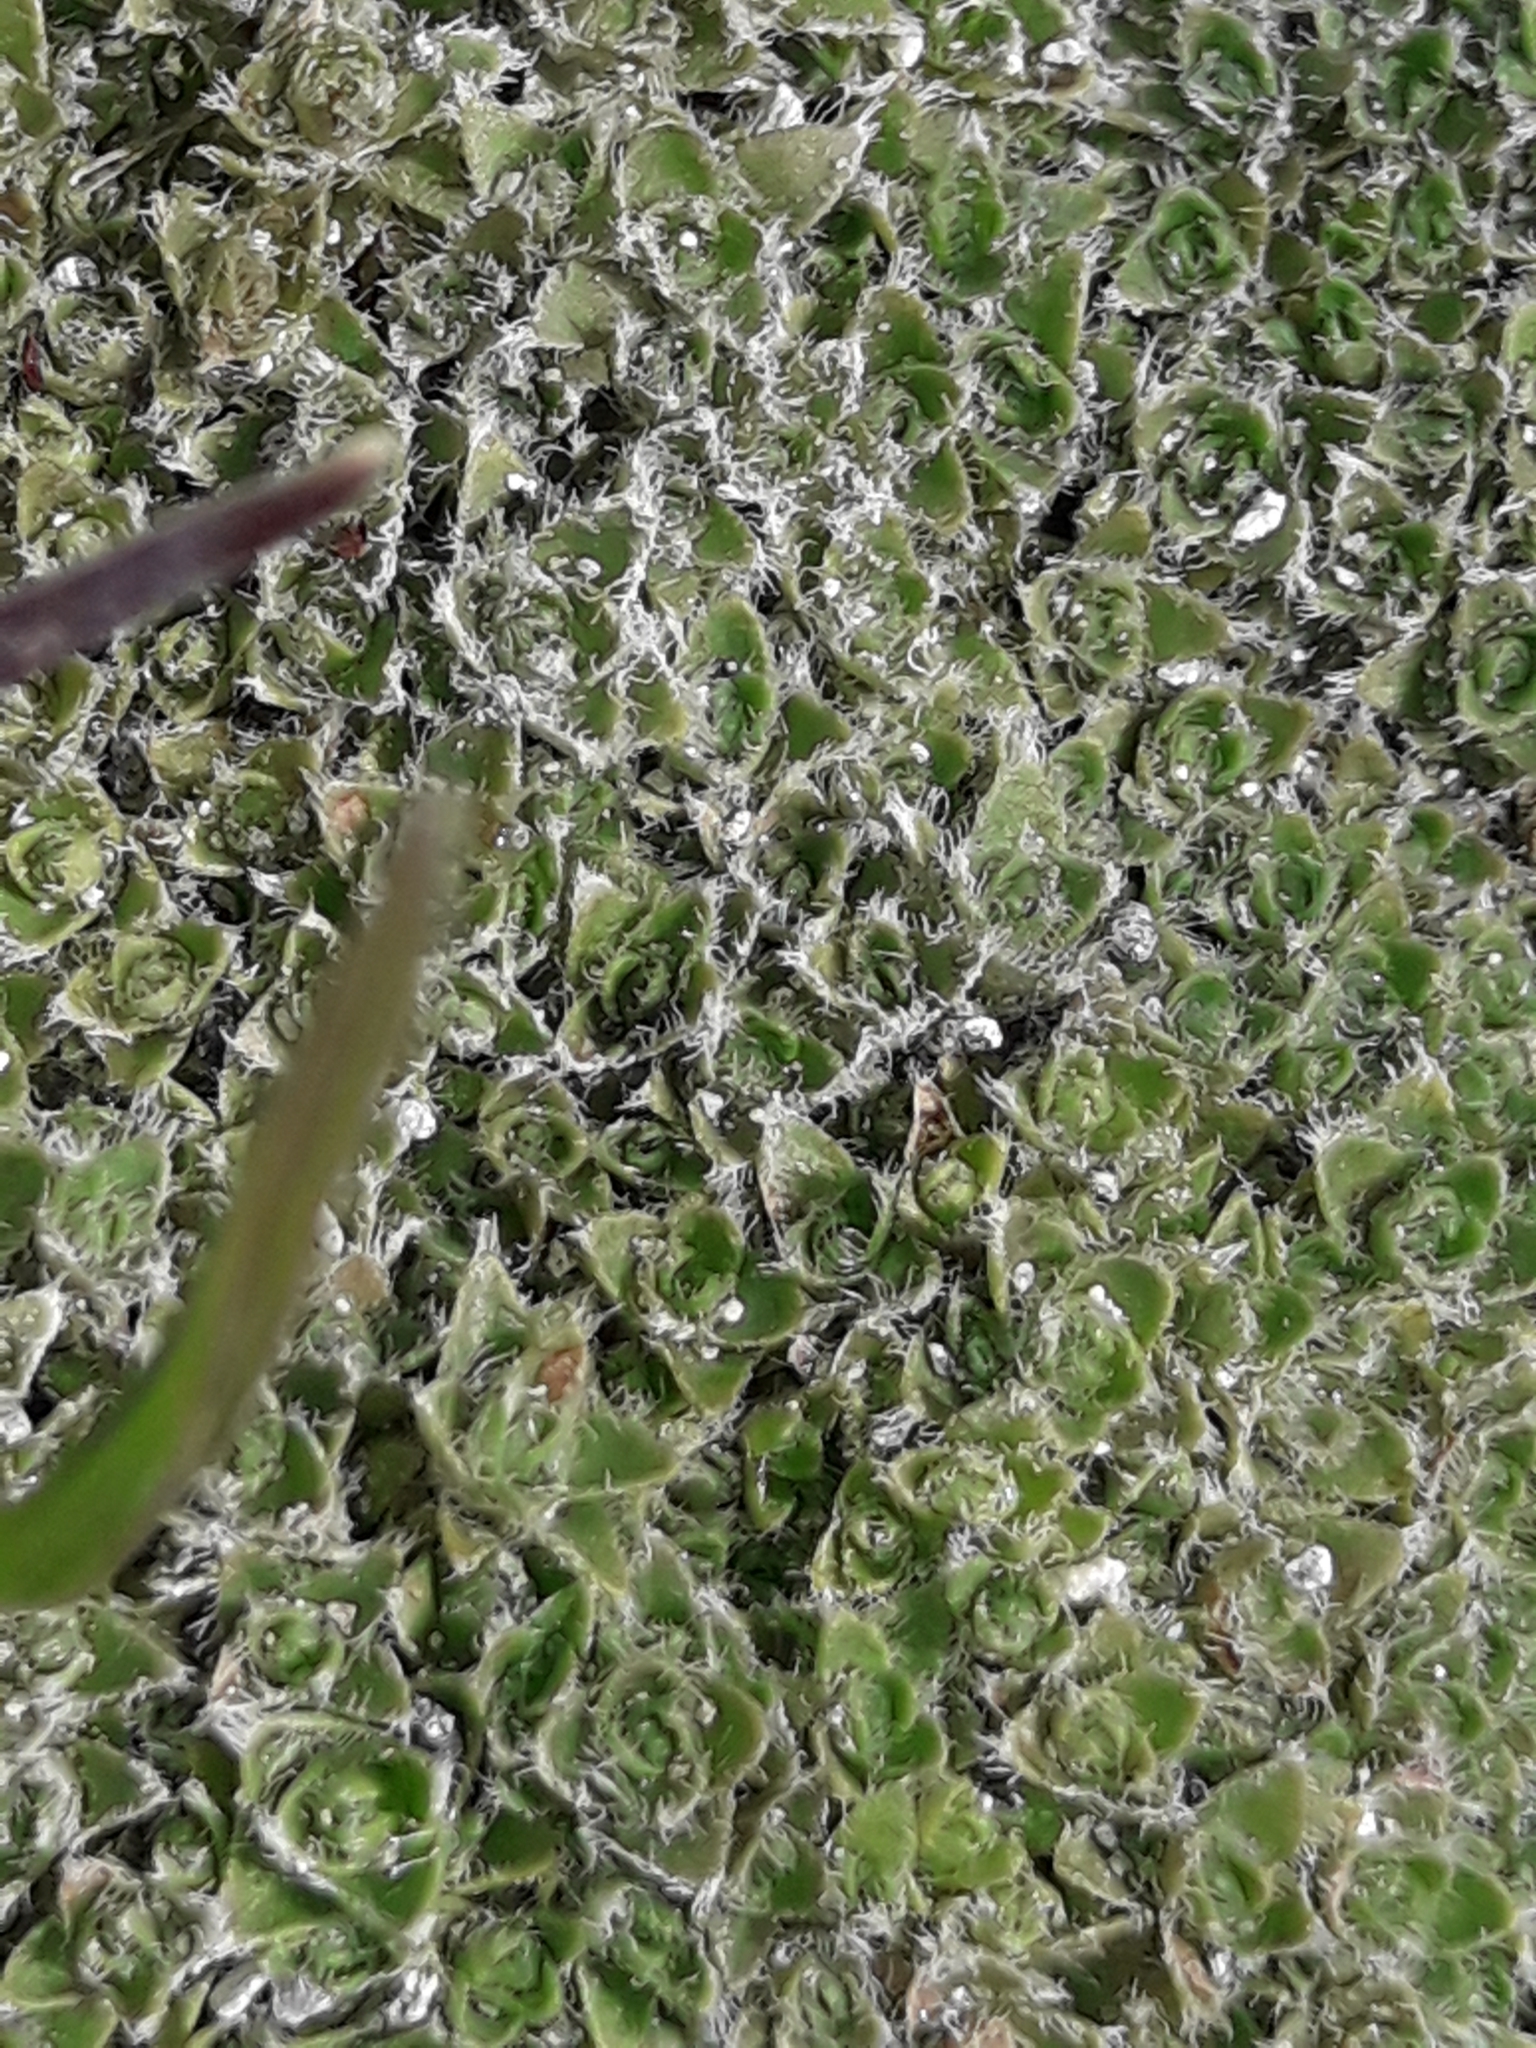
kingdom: Plantae
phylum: Tracheophyta
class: Magnoliopsida
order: Lamiales
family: Plantaginaceae
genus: Veronica
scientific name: Veronica ciliolata
